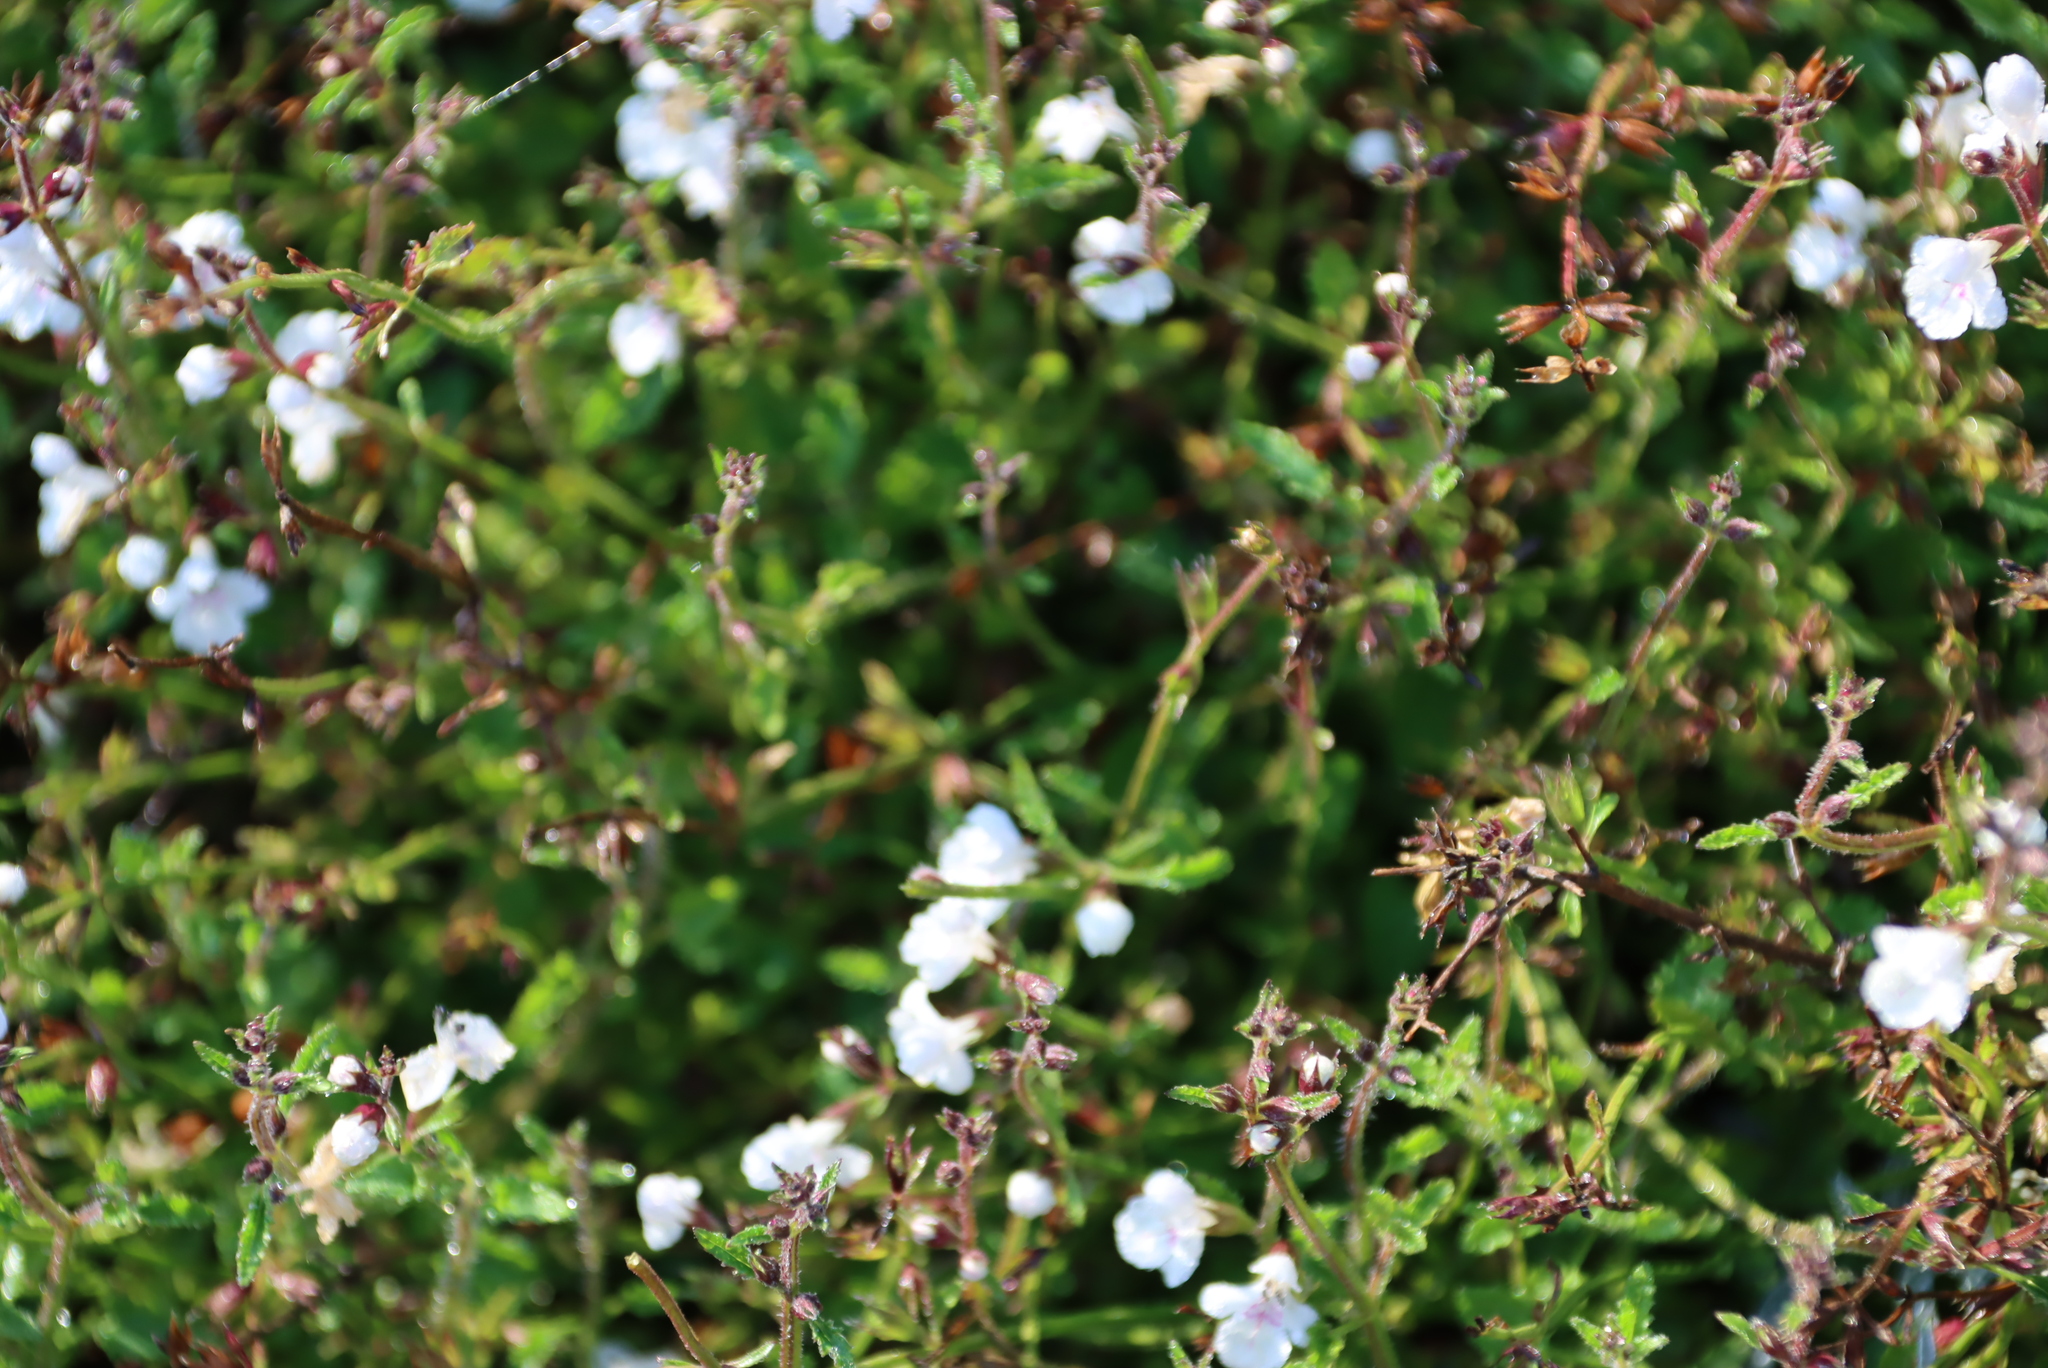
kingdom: Plantae
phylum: Tracheophyta
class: Magnoliopsida
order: Lamiales
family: Scrophulariaceae
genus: Nemesia
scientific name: Nemesia fruticans
